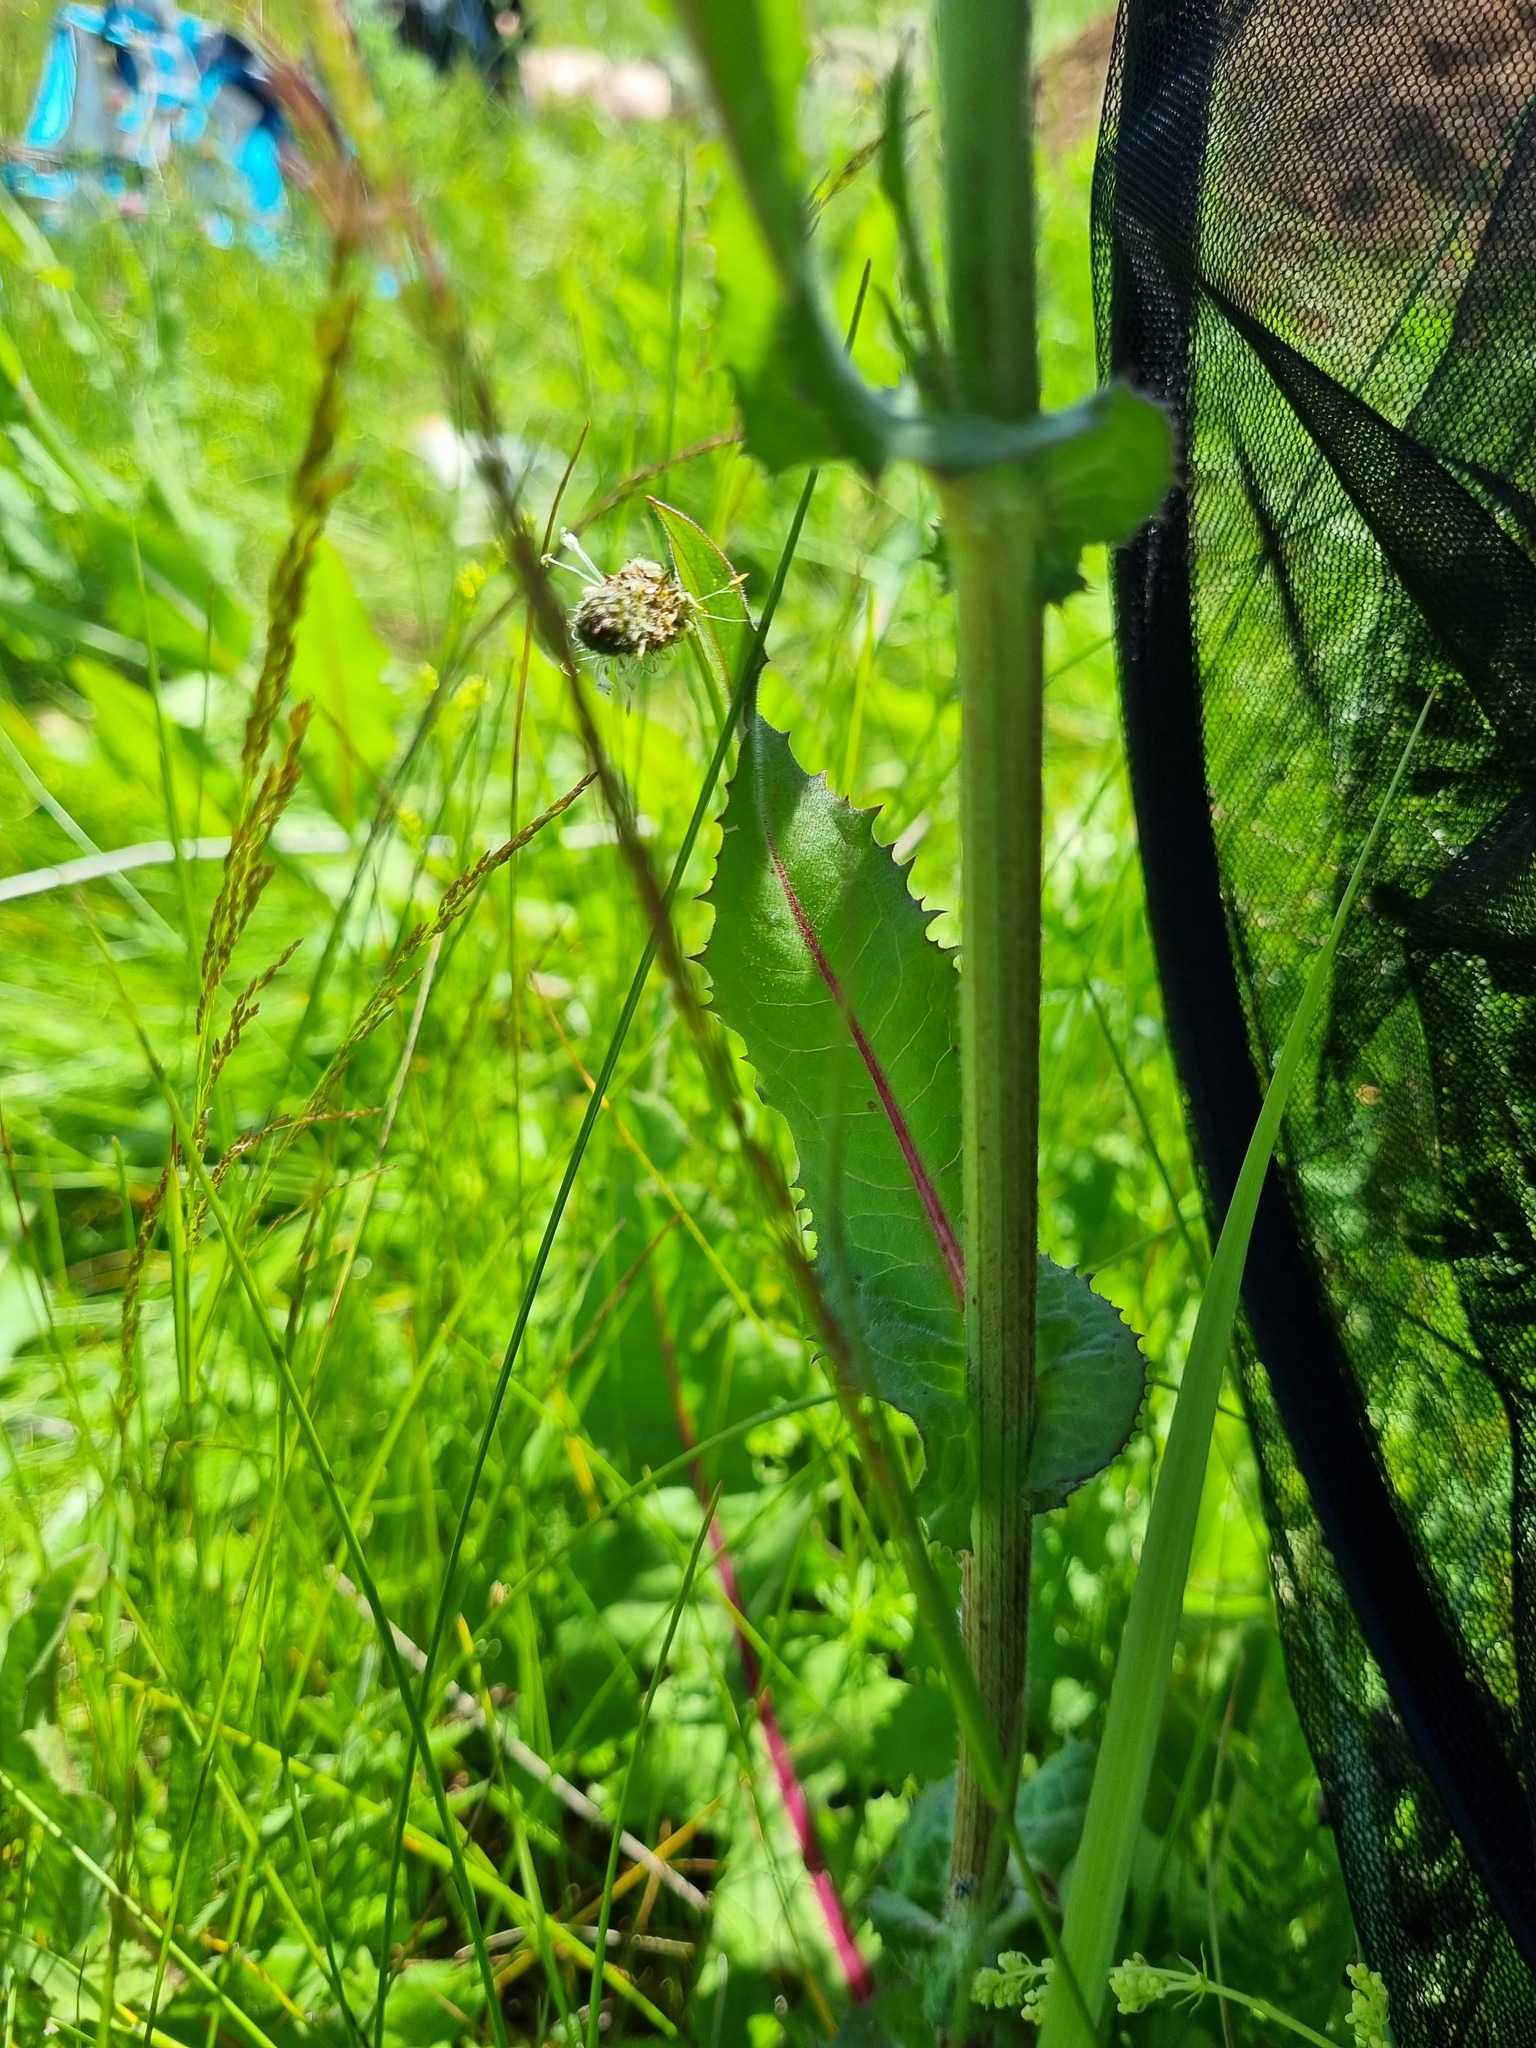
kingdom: Plantae
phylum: Tracheophyta
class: Magnoliopsida
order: Asterales
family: Asteraceae
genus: Cichorium
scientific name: Cichorium intybus
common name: Chicory
